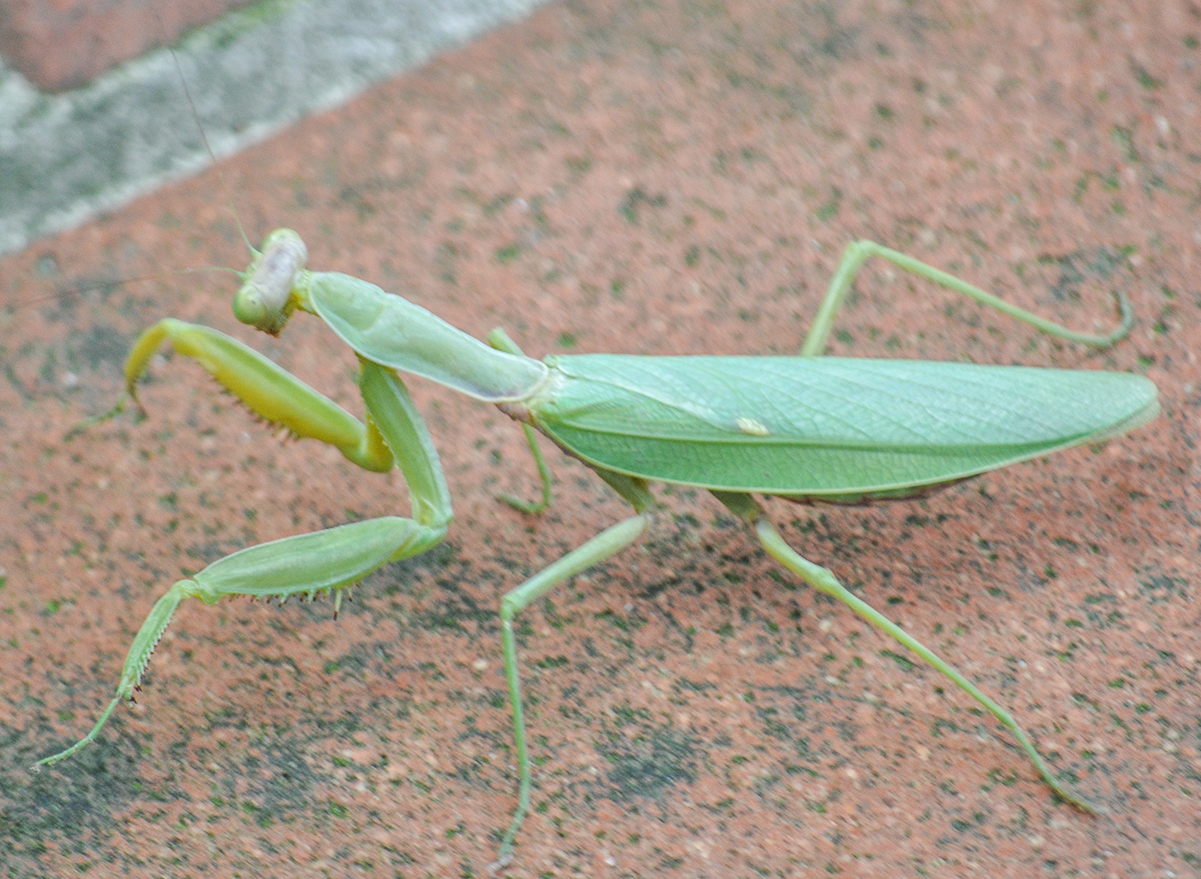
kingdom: Animalia
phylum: Arthropoda
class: Insecta
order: Mantodea
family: Mantidae
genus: Hierodula
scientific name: Hierodula transcaucasica
